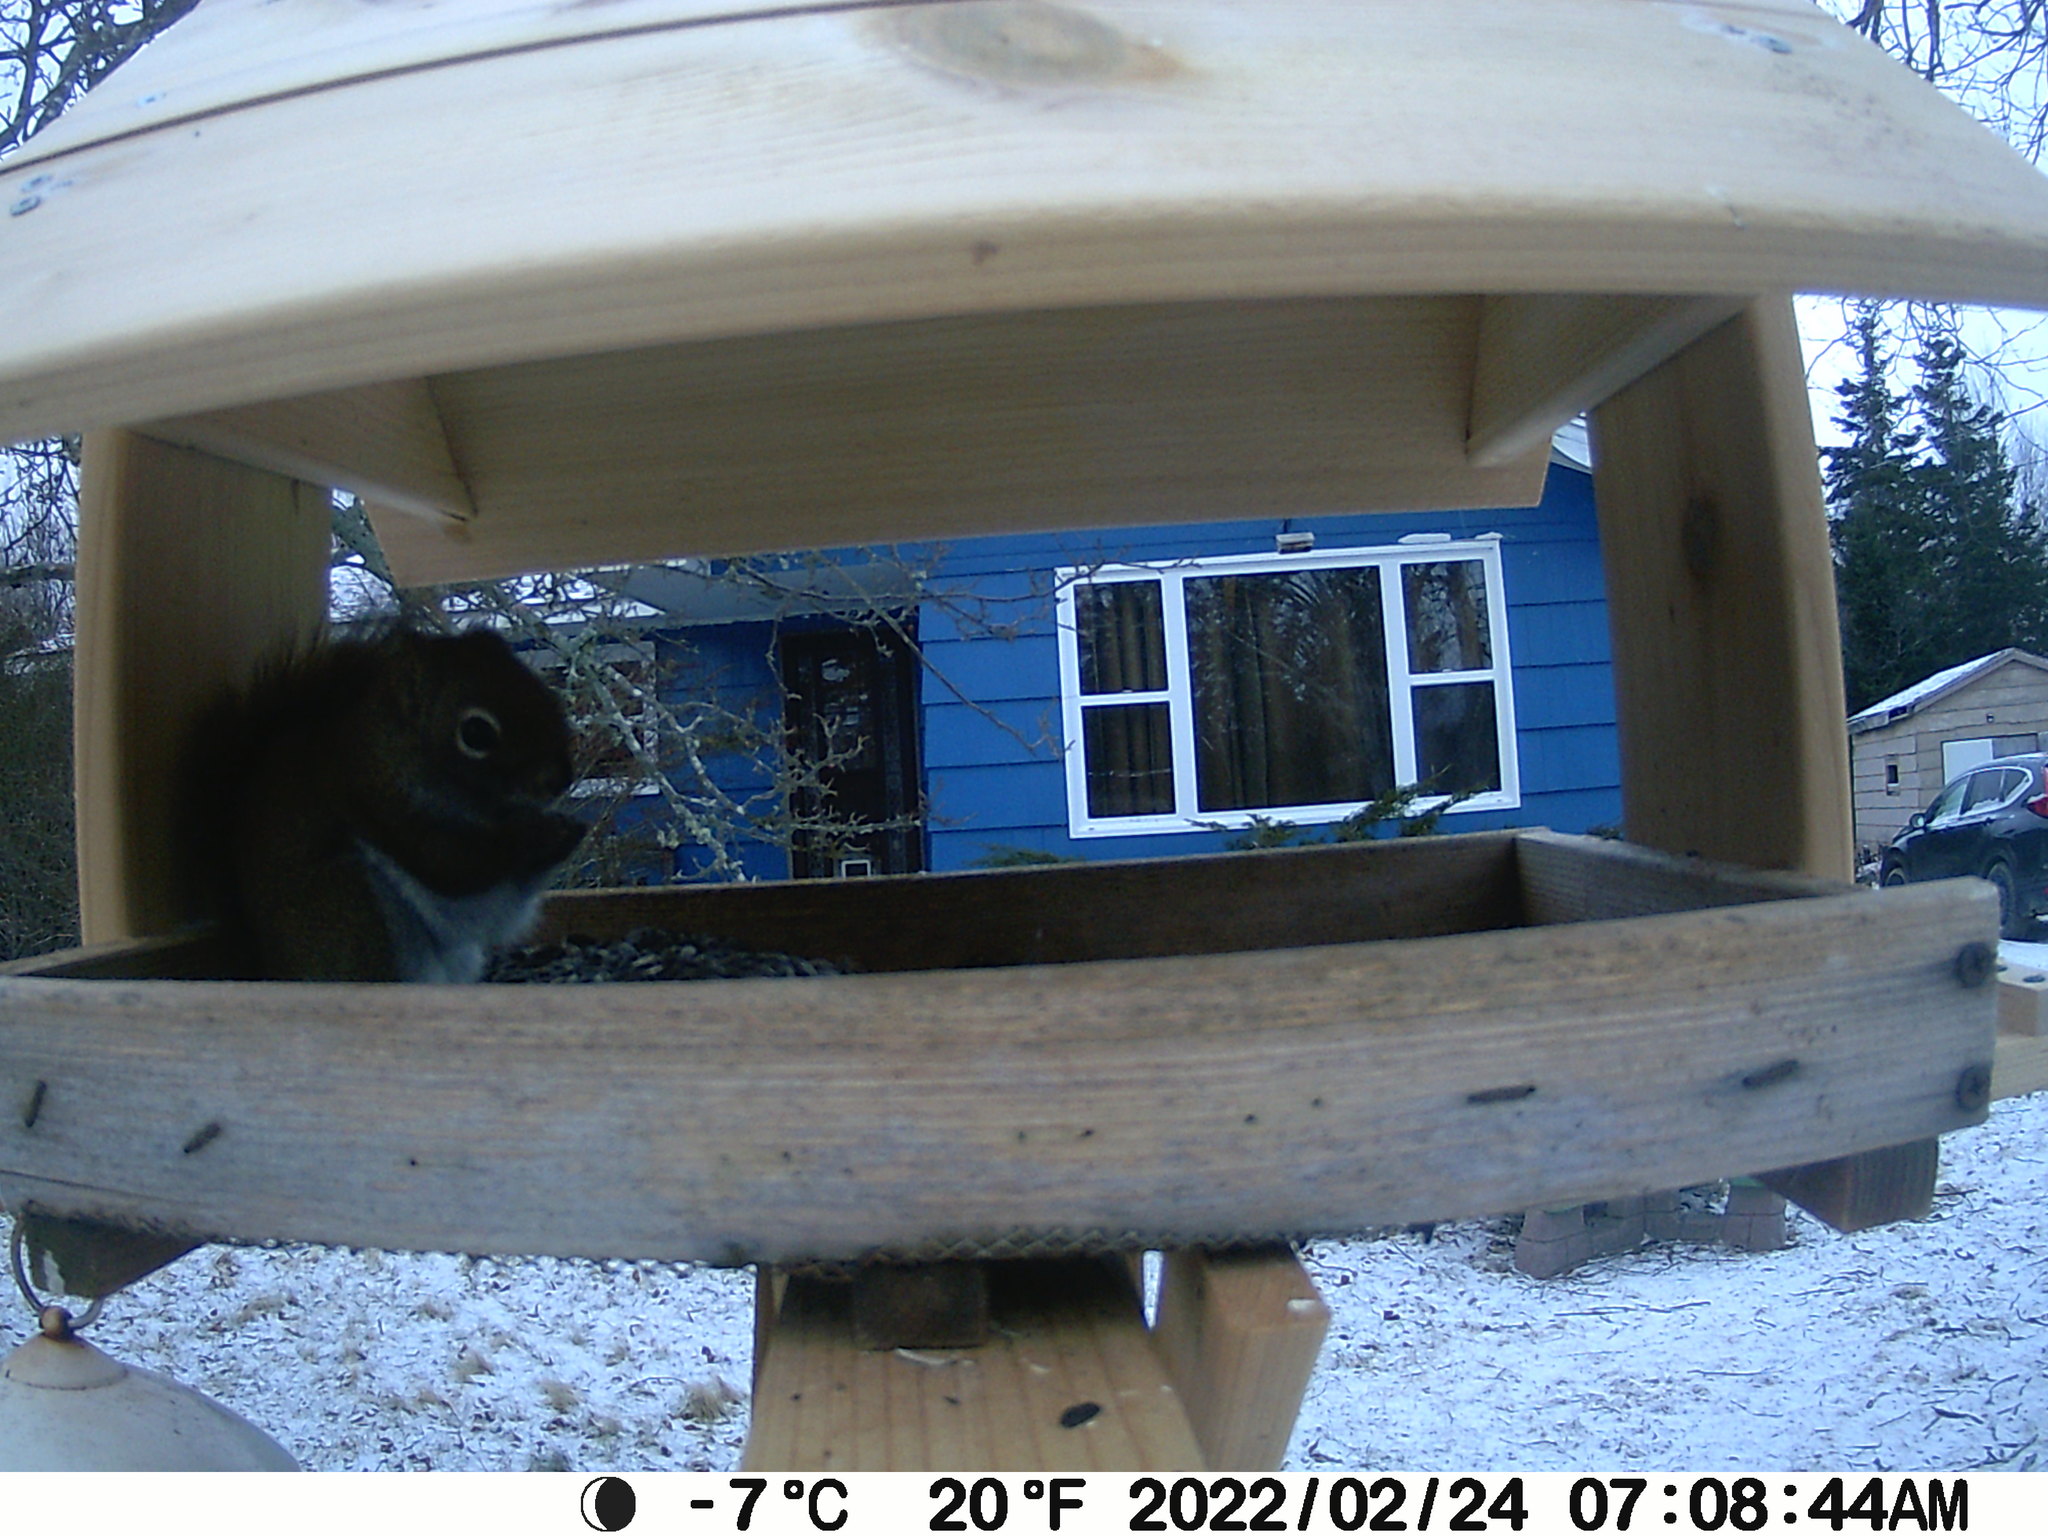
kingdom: Animalia
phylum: Chordata
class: Mammalia
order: Rodentia
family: Sciuridae
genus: Tamiasciurus
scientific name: Tamiasciurus hudsonicus
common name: Red squirrel
